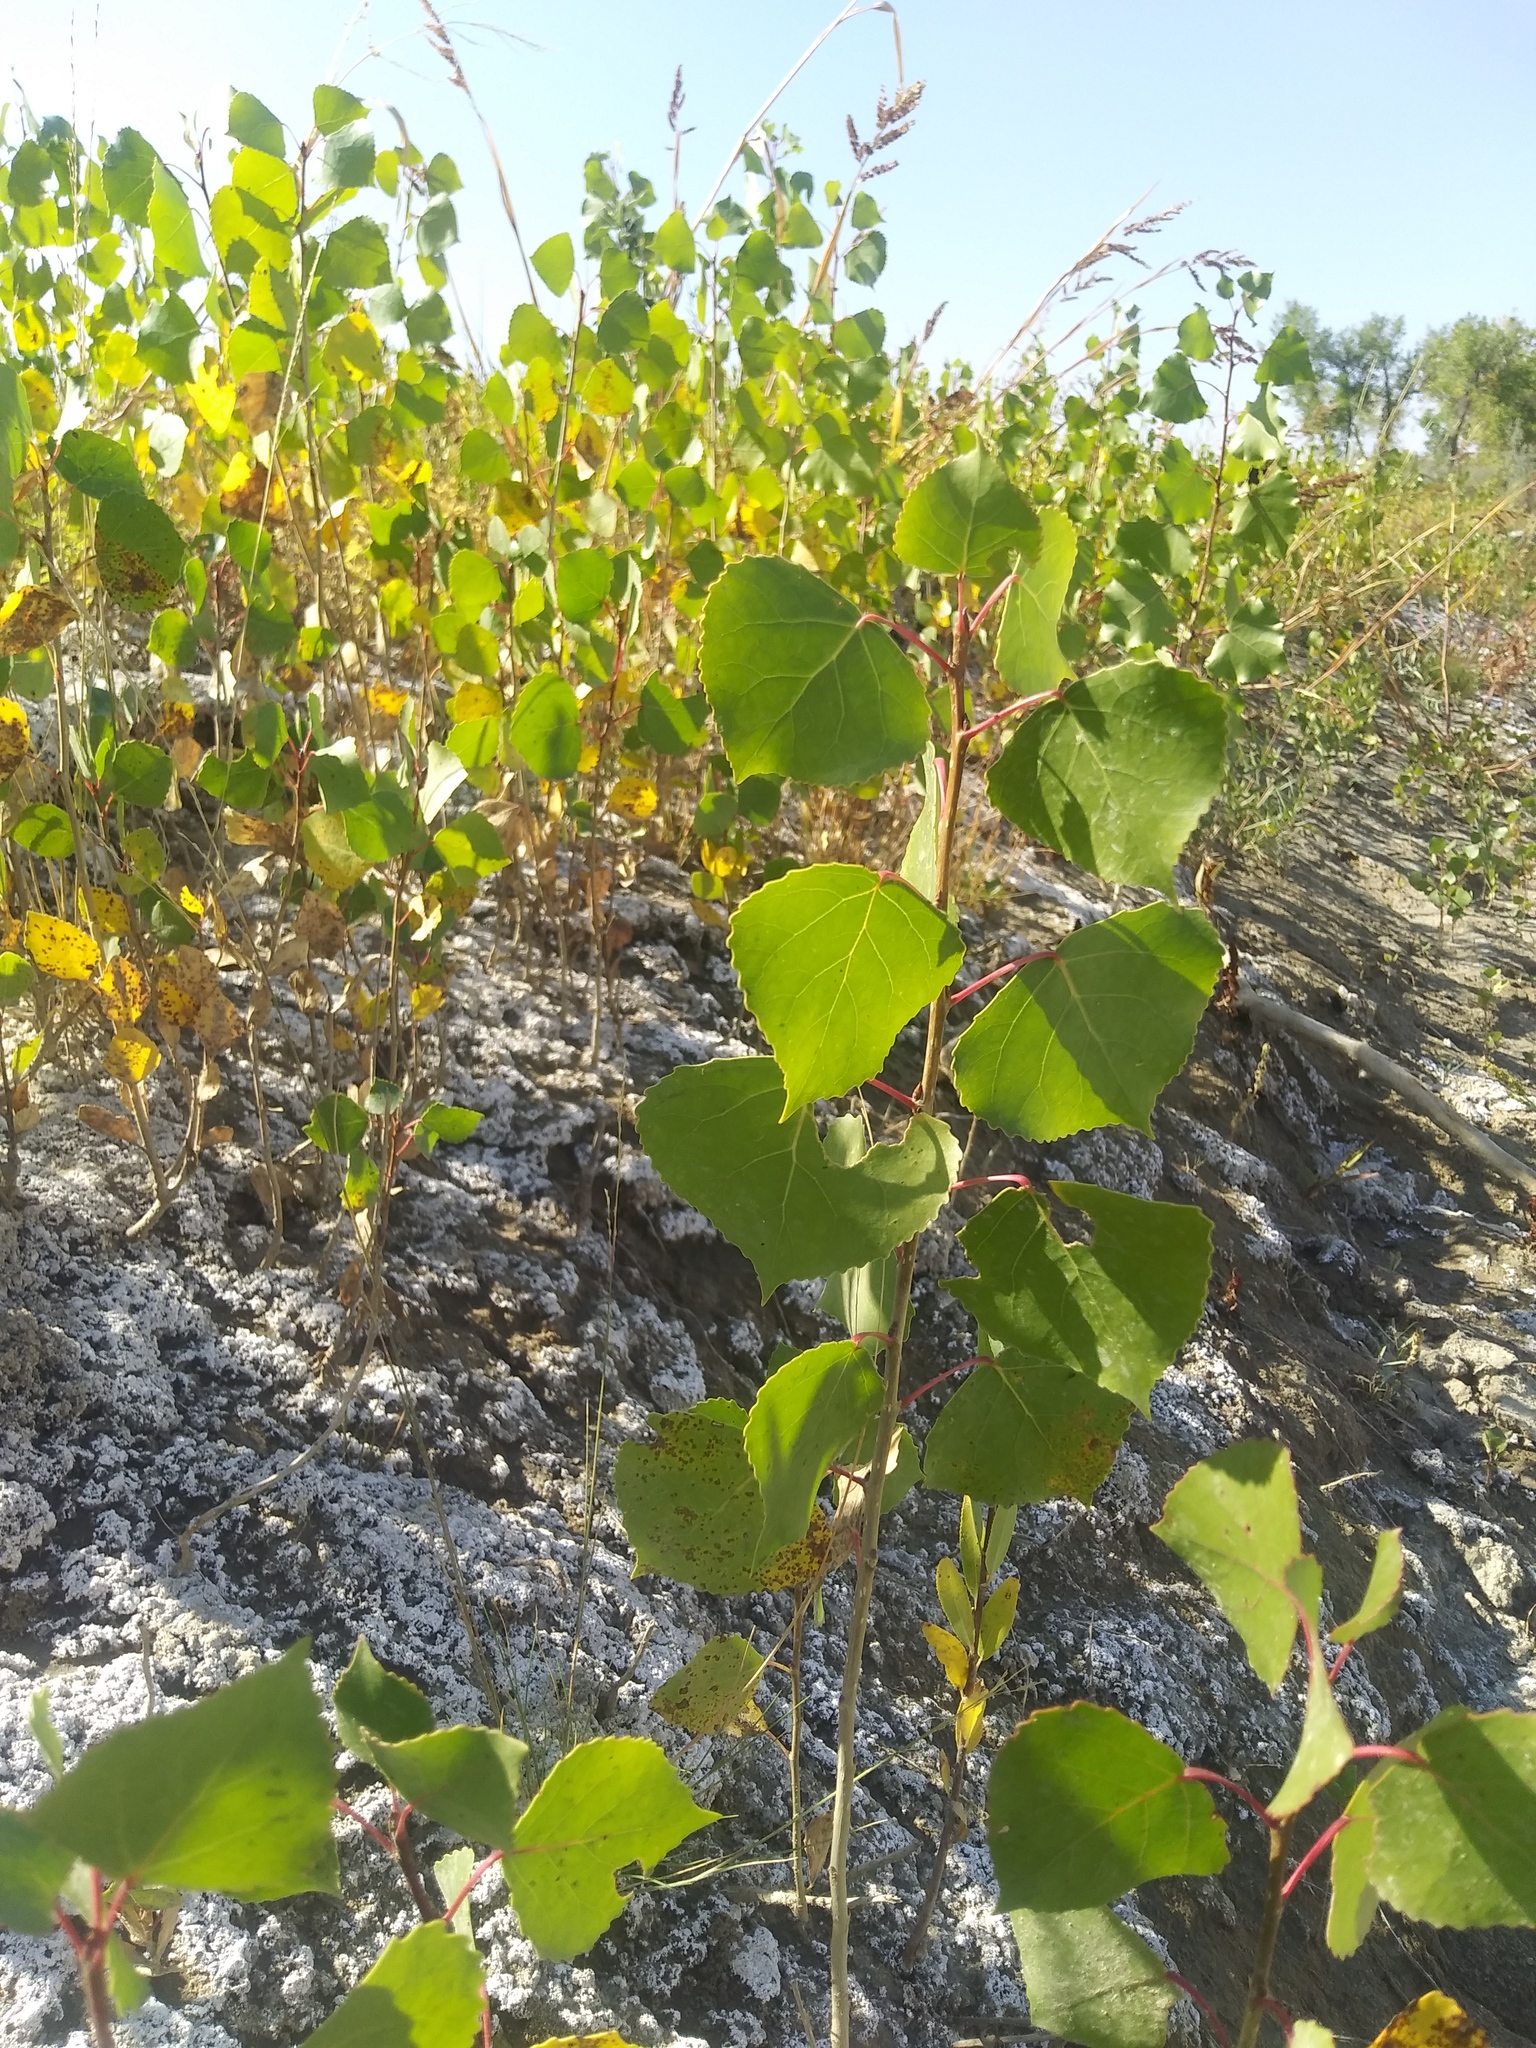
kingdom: Plantae
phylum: Tracheophyta
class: Magnoliopsida
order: Malpighiales
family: Salicaceae
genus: Populus
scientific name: Populus deltoides
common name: Eastern cottonwood
